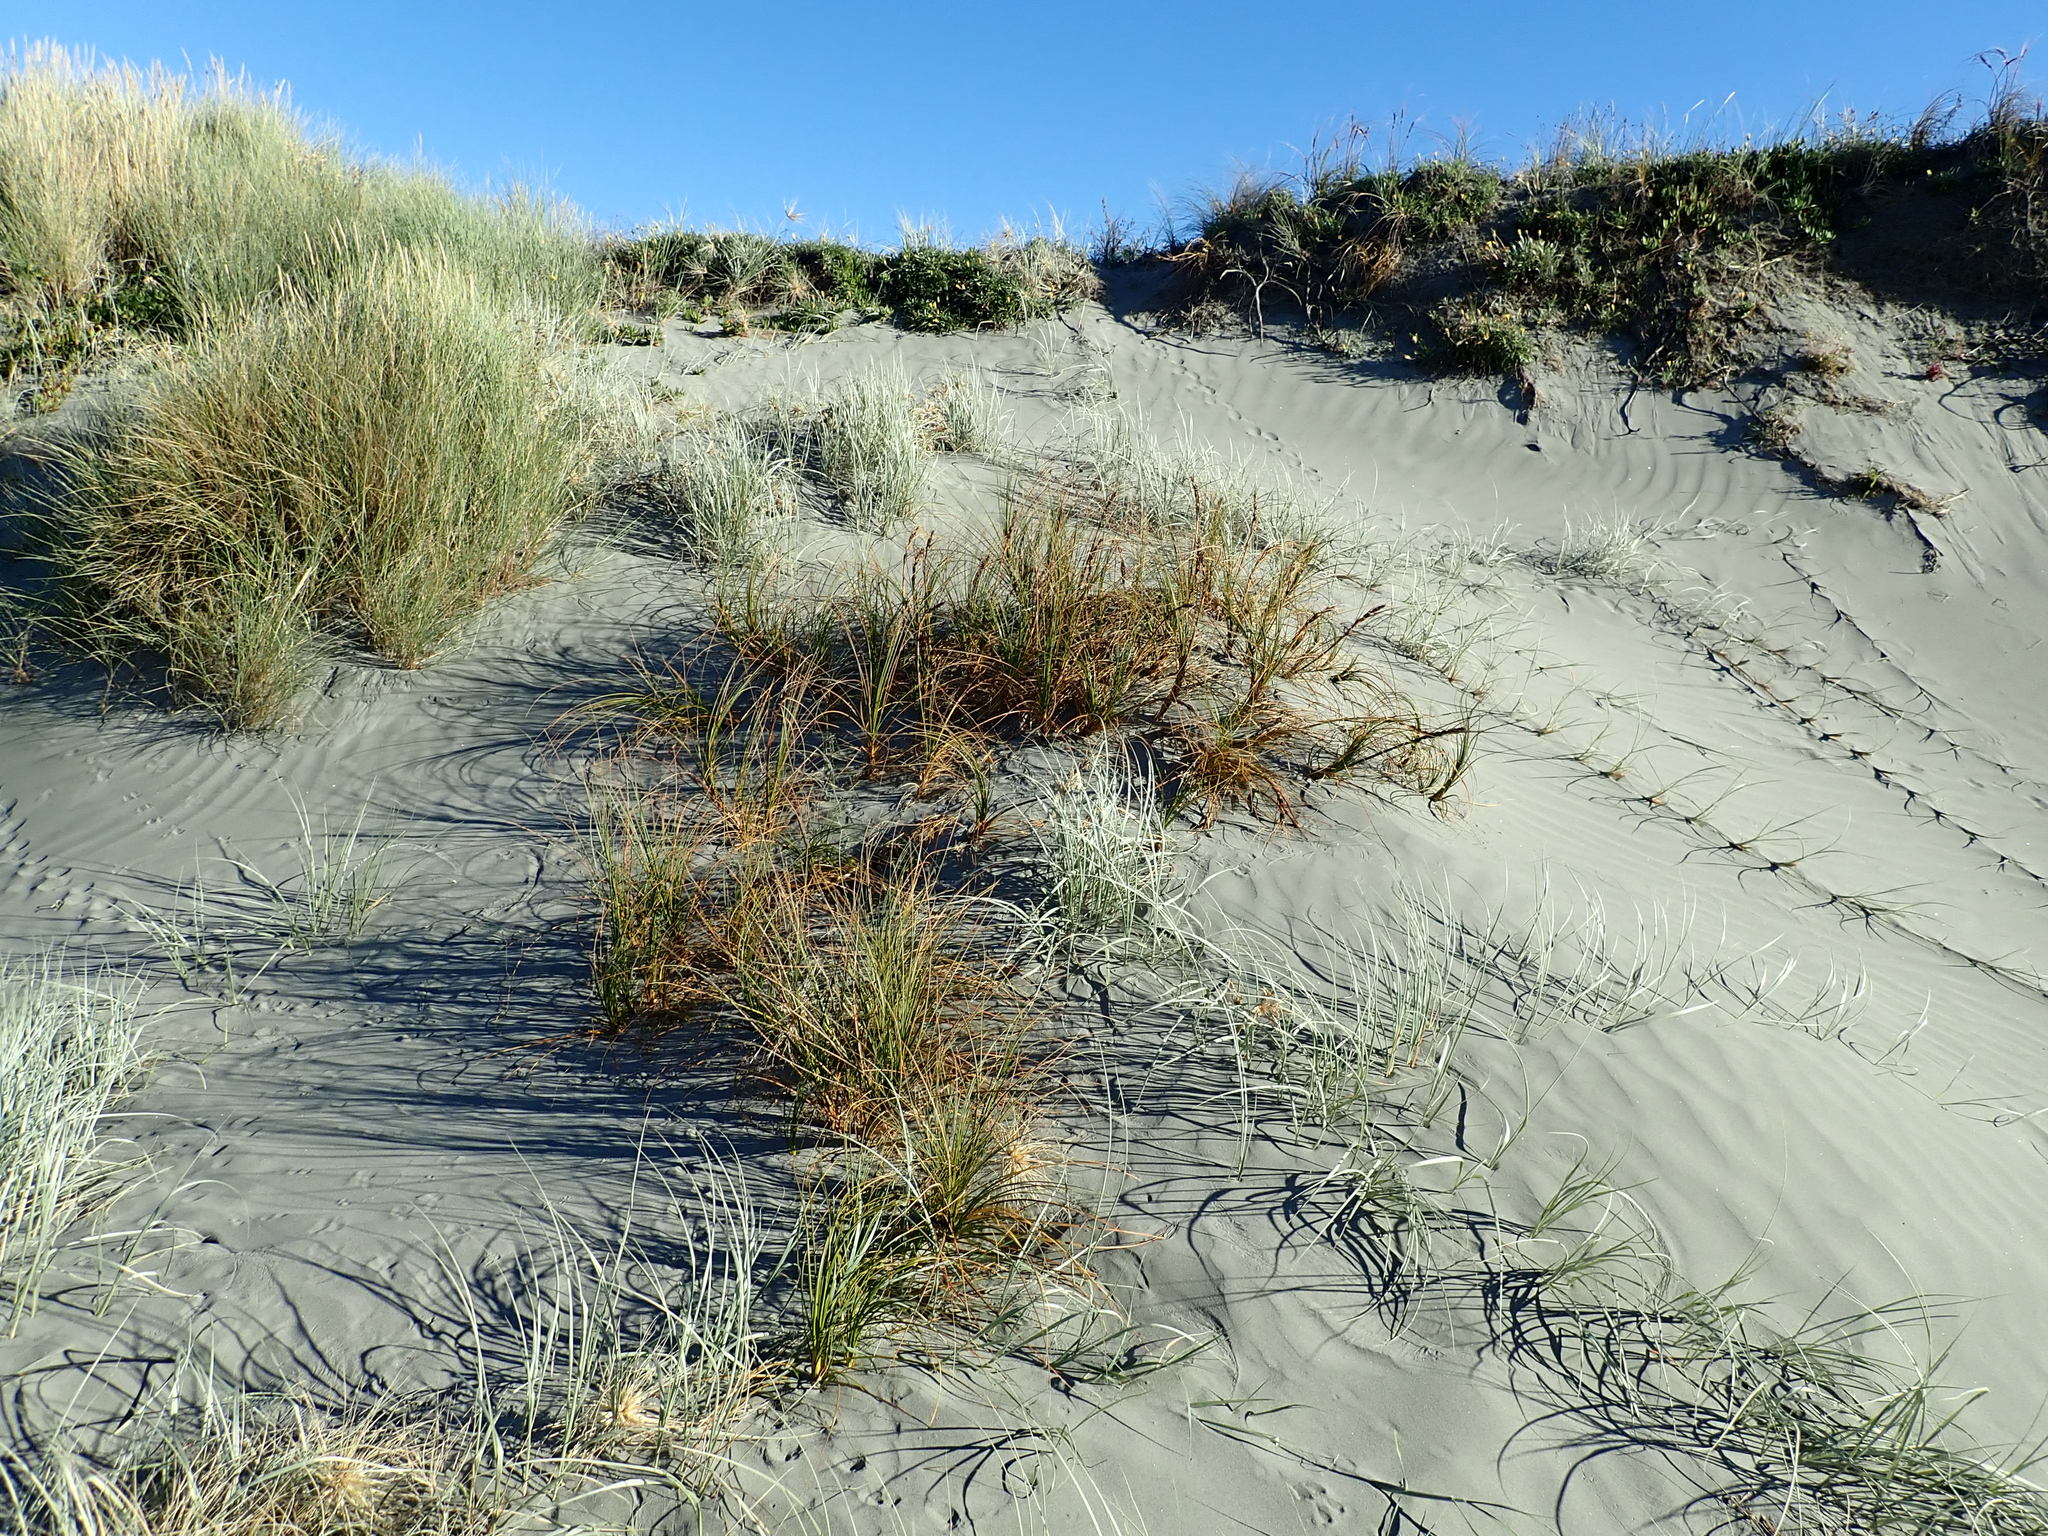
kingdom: Plantae
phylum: Tracheophyta
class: Liliopsida
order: Poales
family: Cyperaceae
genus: Ficinia
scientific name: Ficinia spiralis
